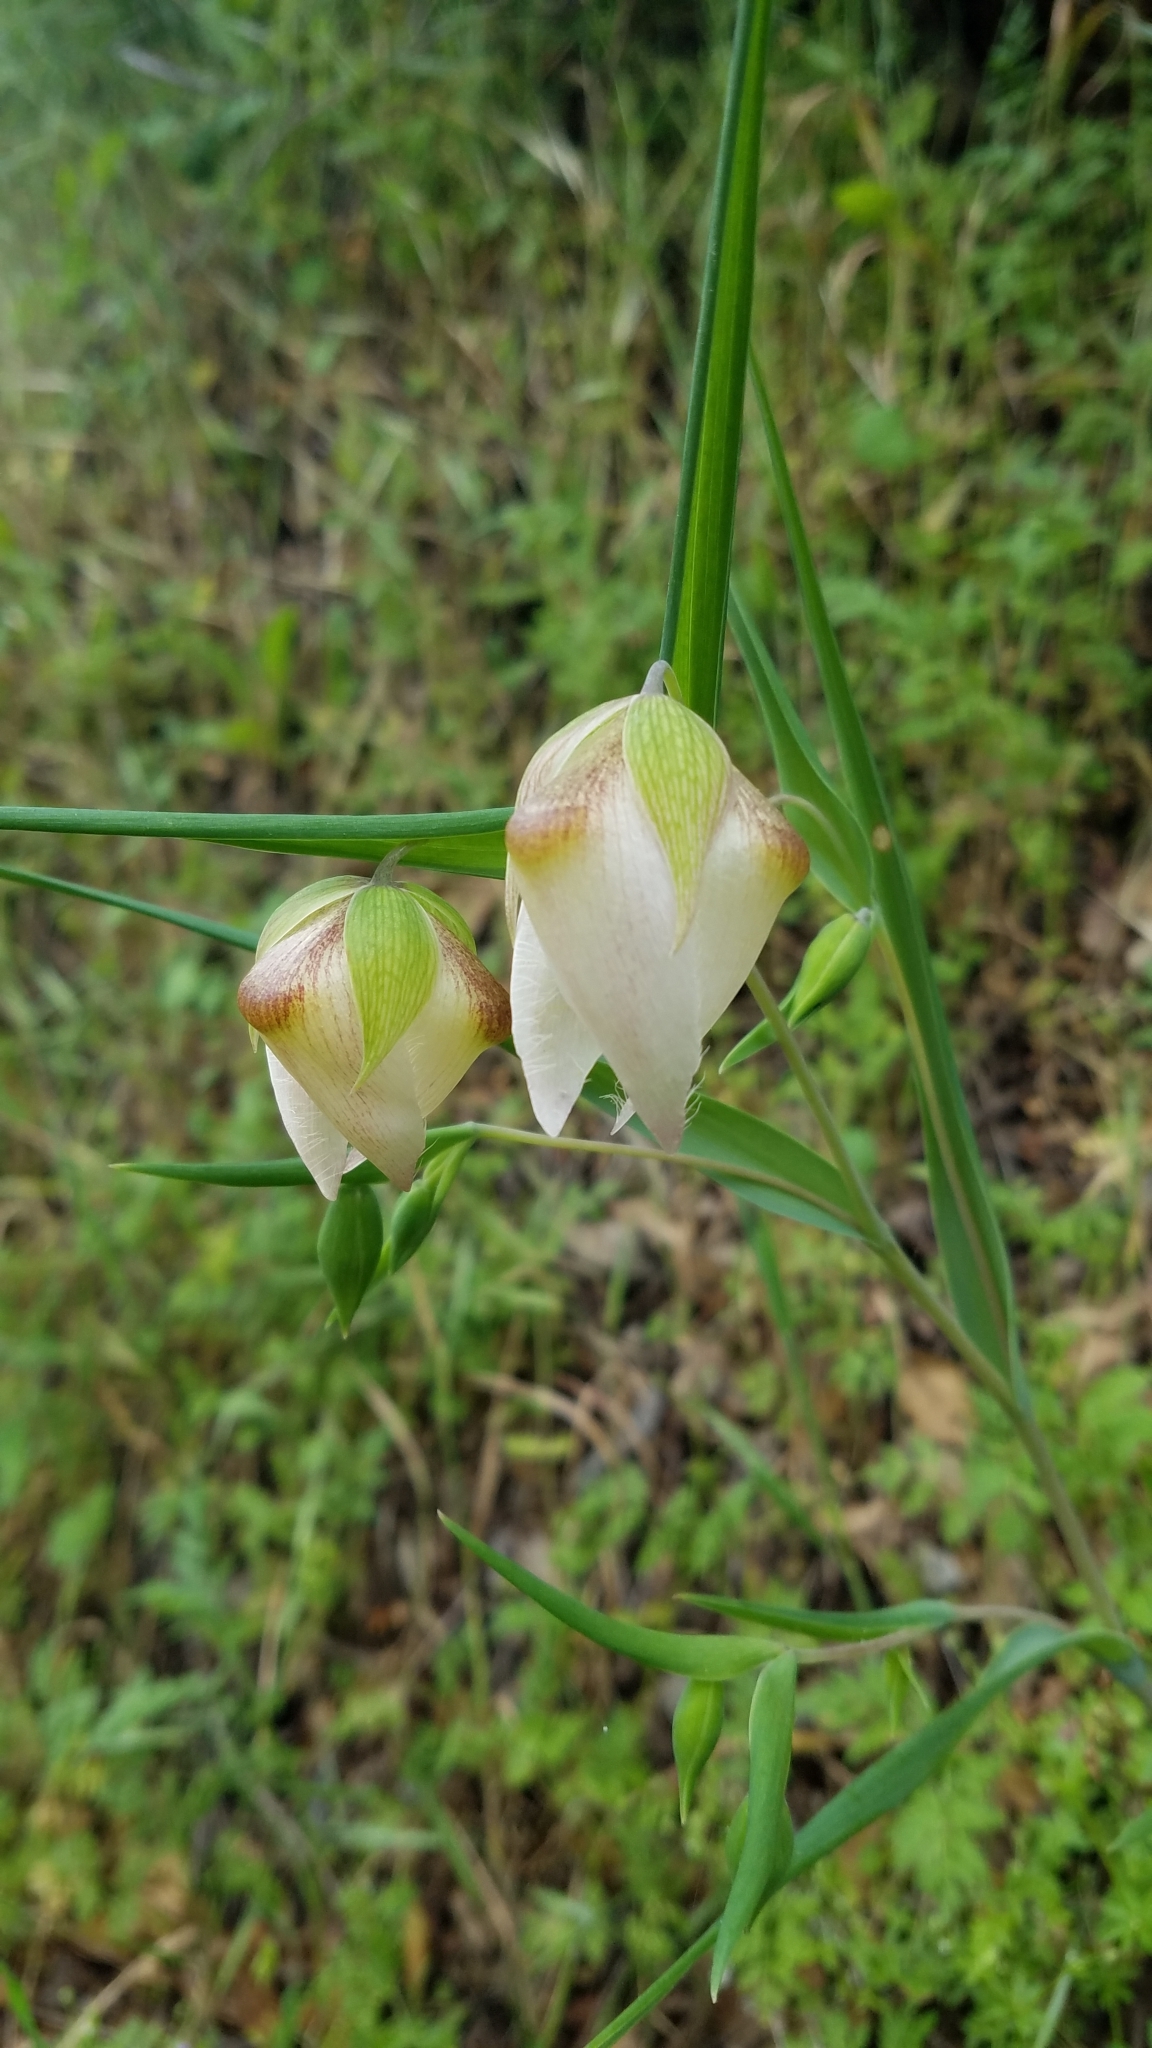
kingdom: Plantae
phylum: Tracheophyta
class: Liliopsida
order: Liliales
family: Liliaceae
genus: Calochortus
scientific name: Calochortus albus
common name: Fairy-lantern
